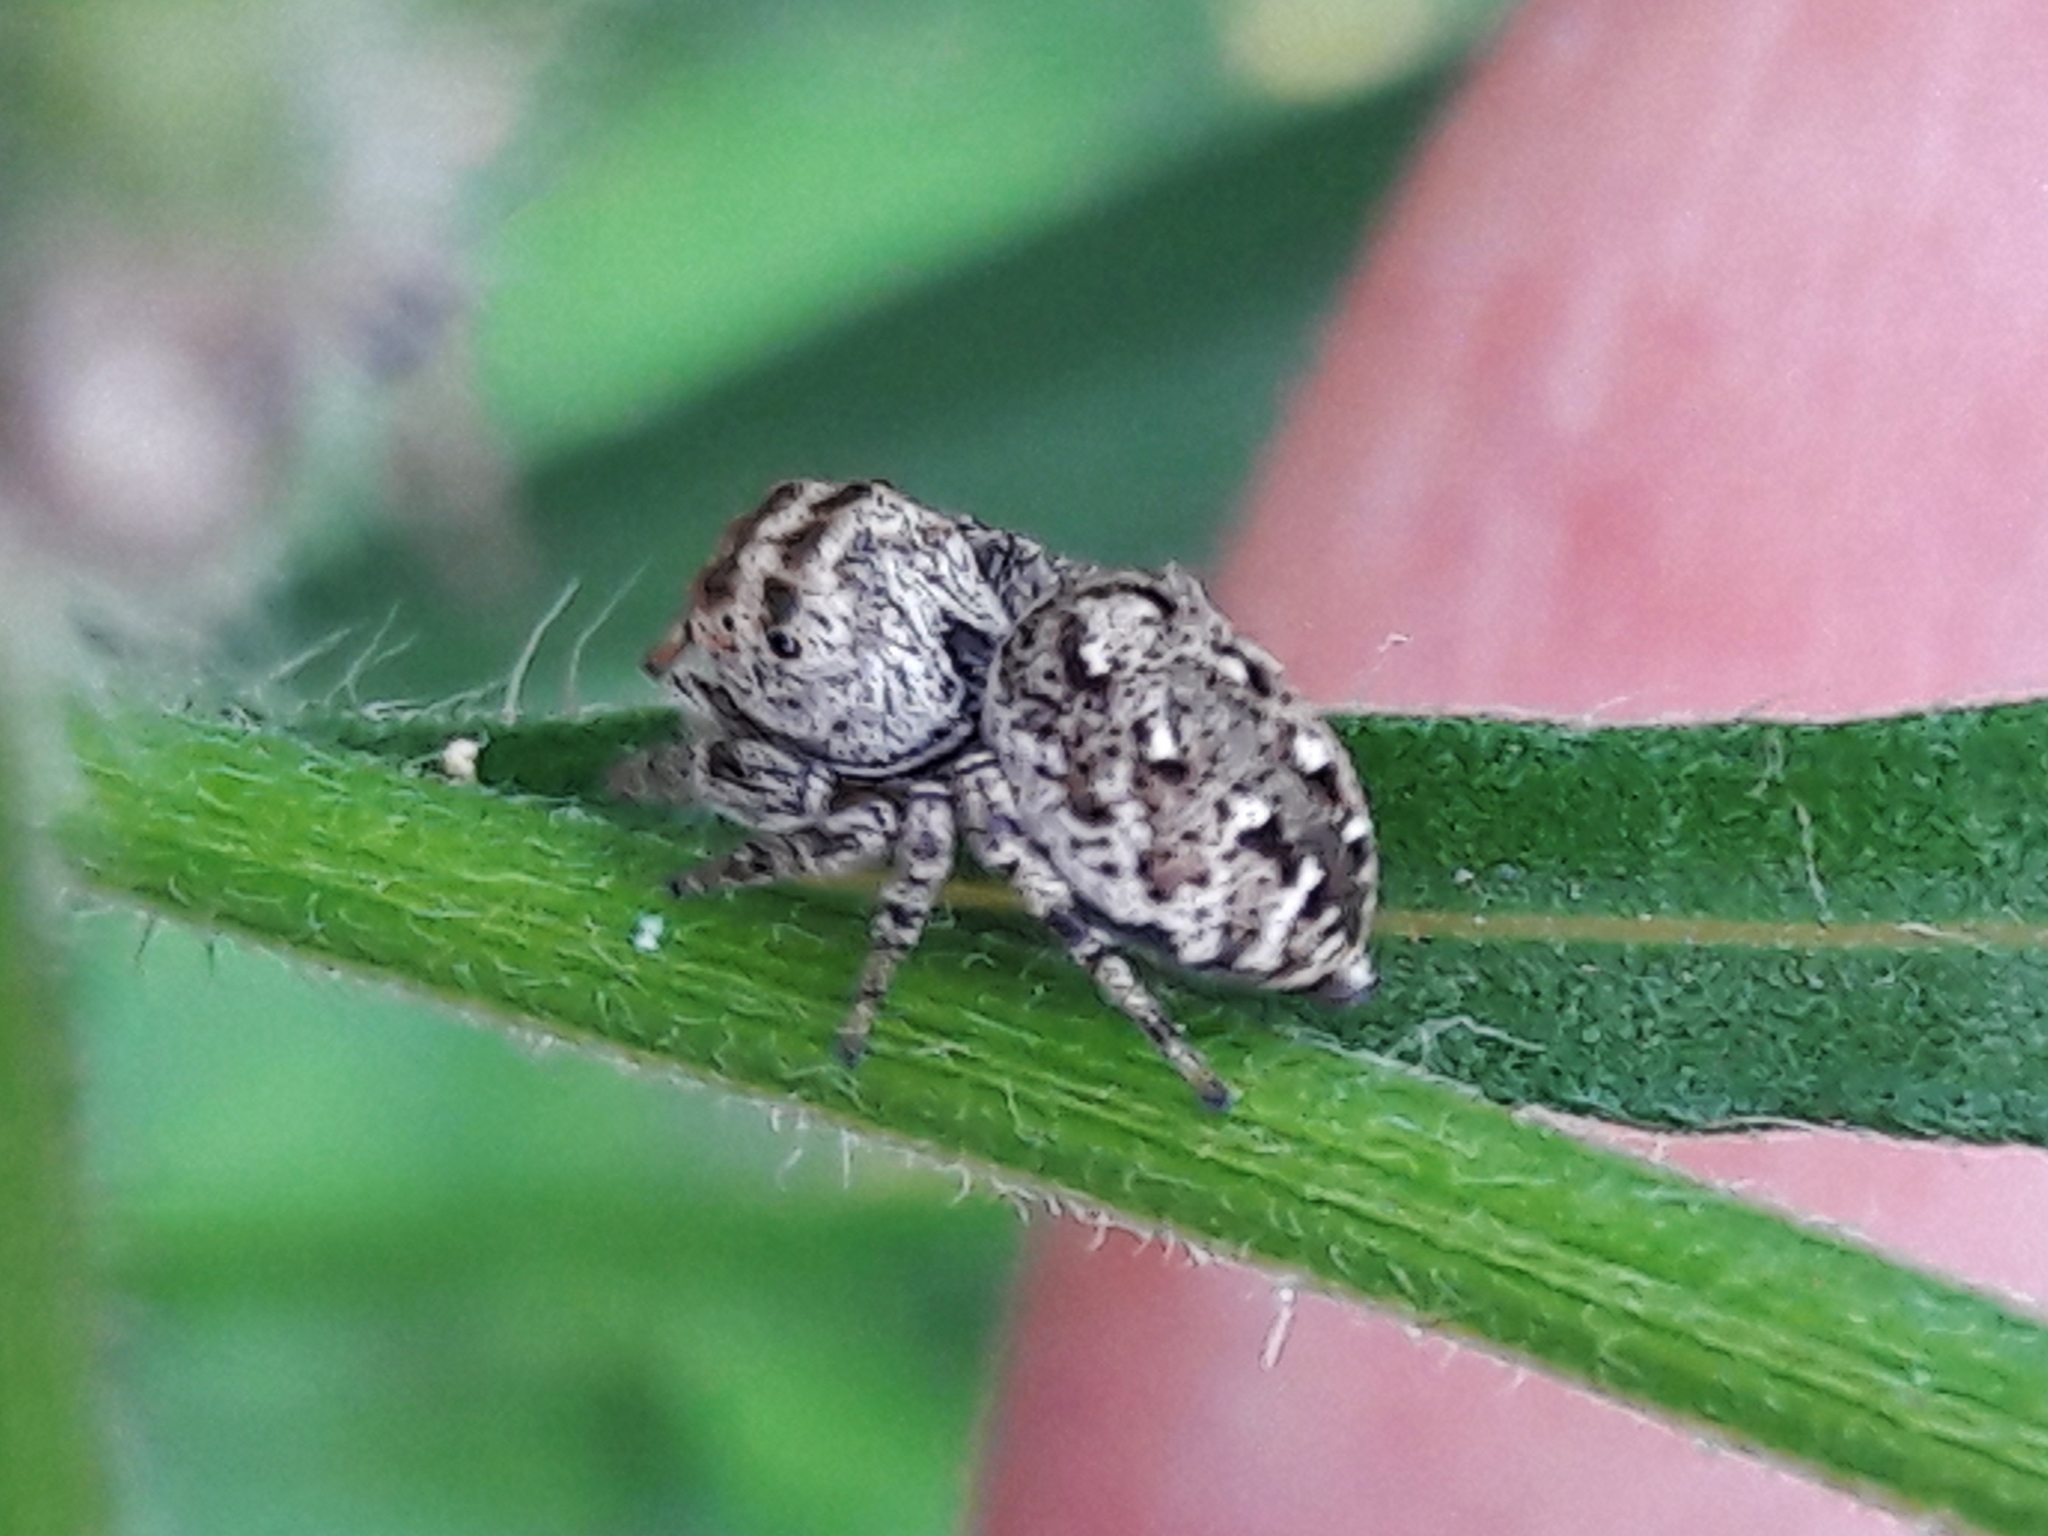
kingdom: Animalia
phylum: Arthropoda
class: Arachnida
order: Araneae
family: Salticidae
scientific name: Salticidae
